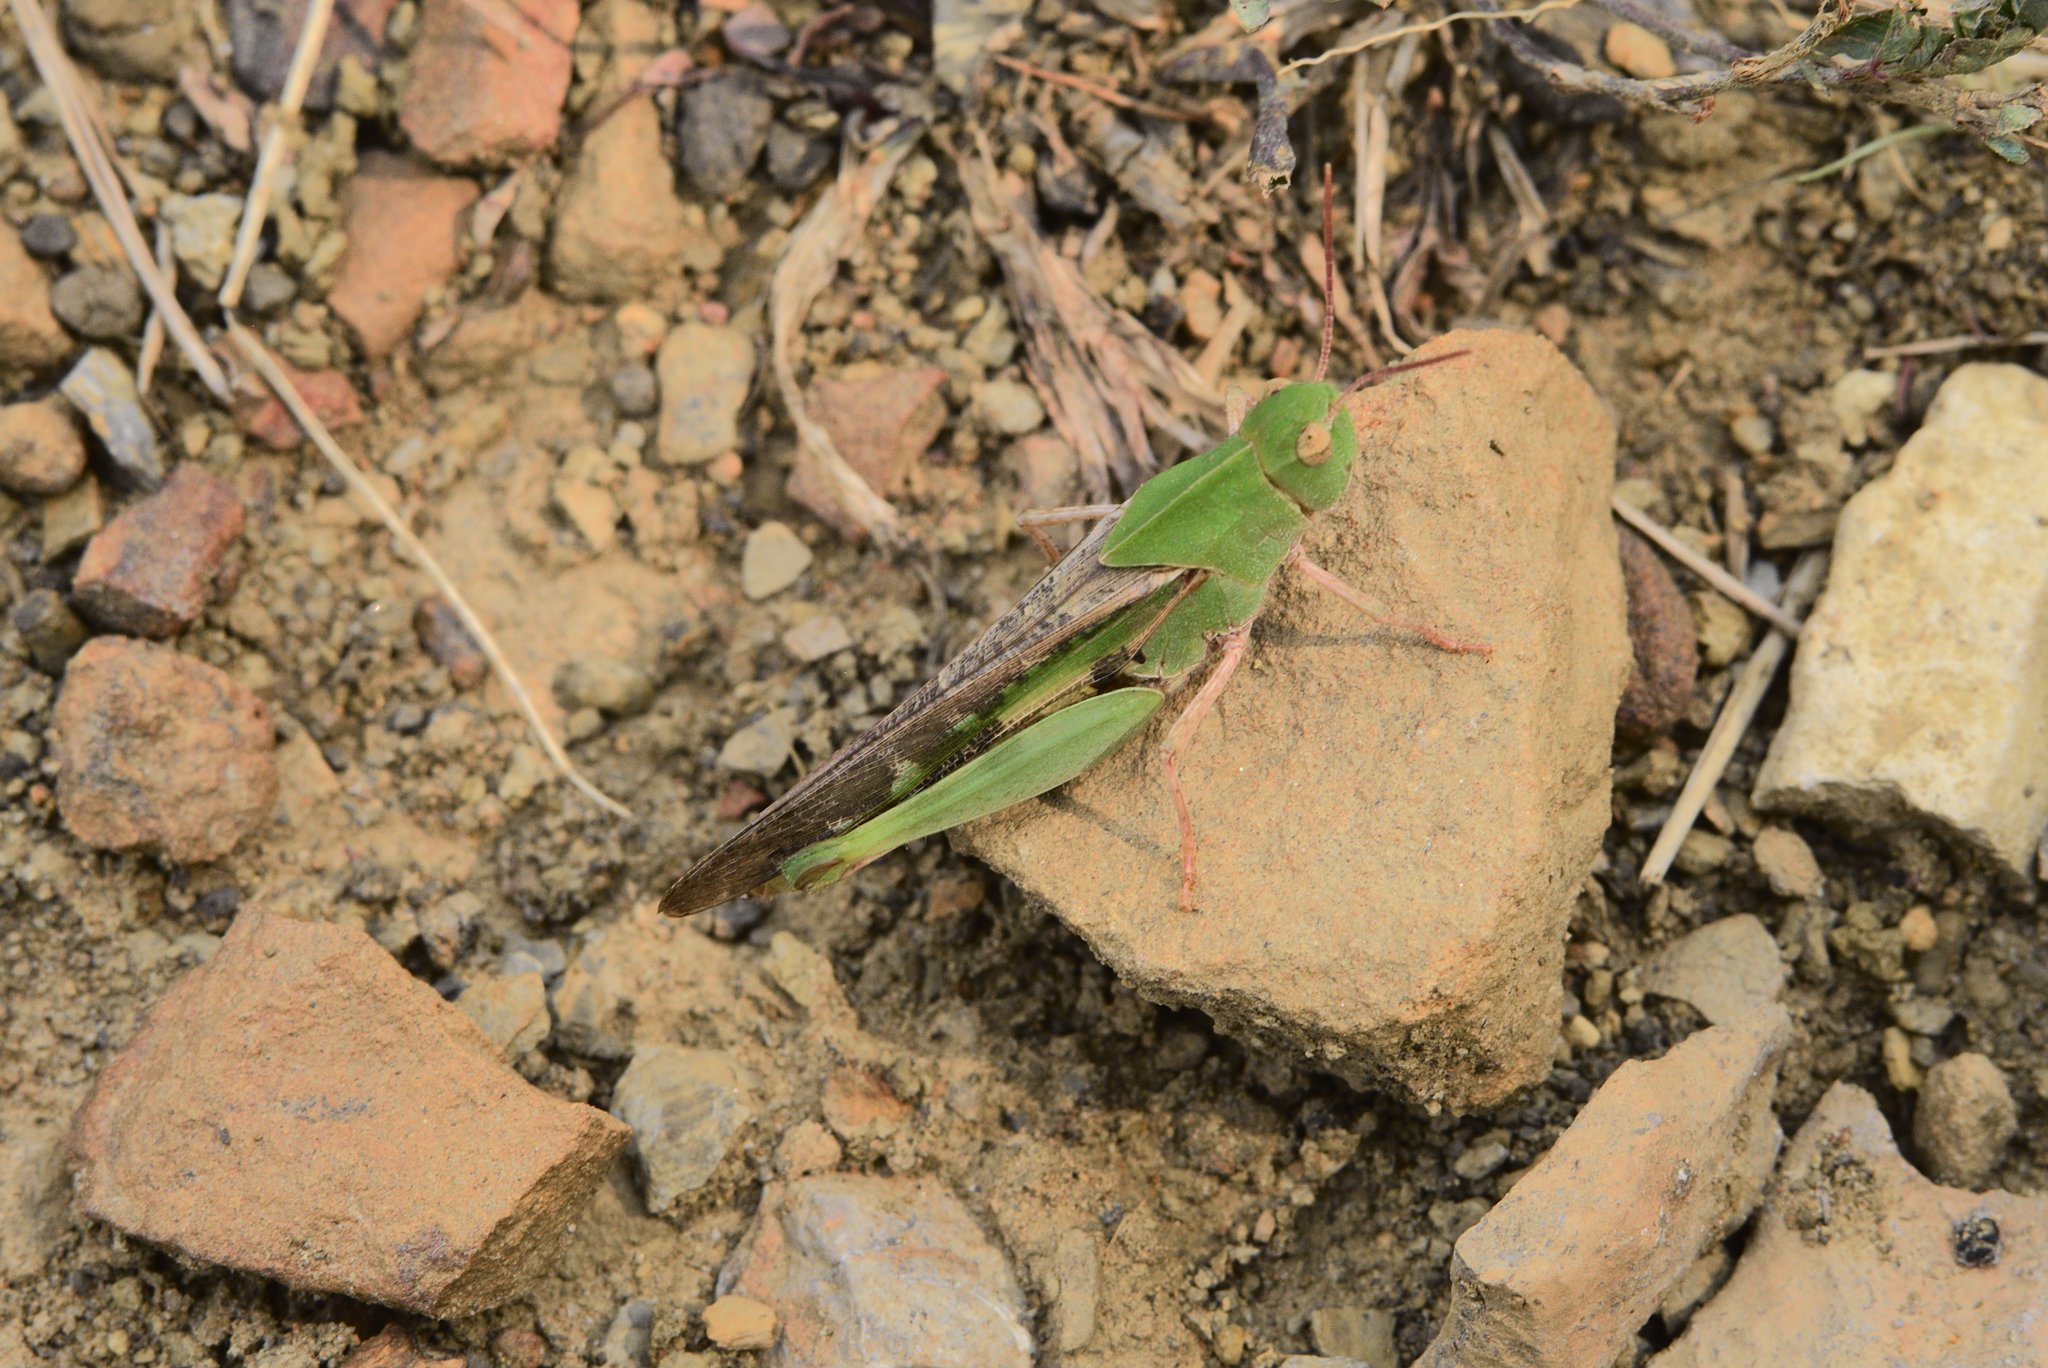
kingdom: Animalia
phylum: Arthropoda
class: Insecta
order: Orthoptera
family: Acrididae
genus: Chortophaga
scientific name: Chortophaga viridifasciata
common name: Green-striped grasshopper
